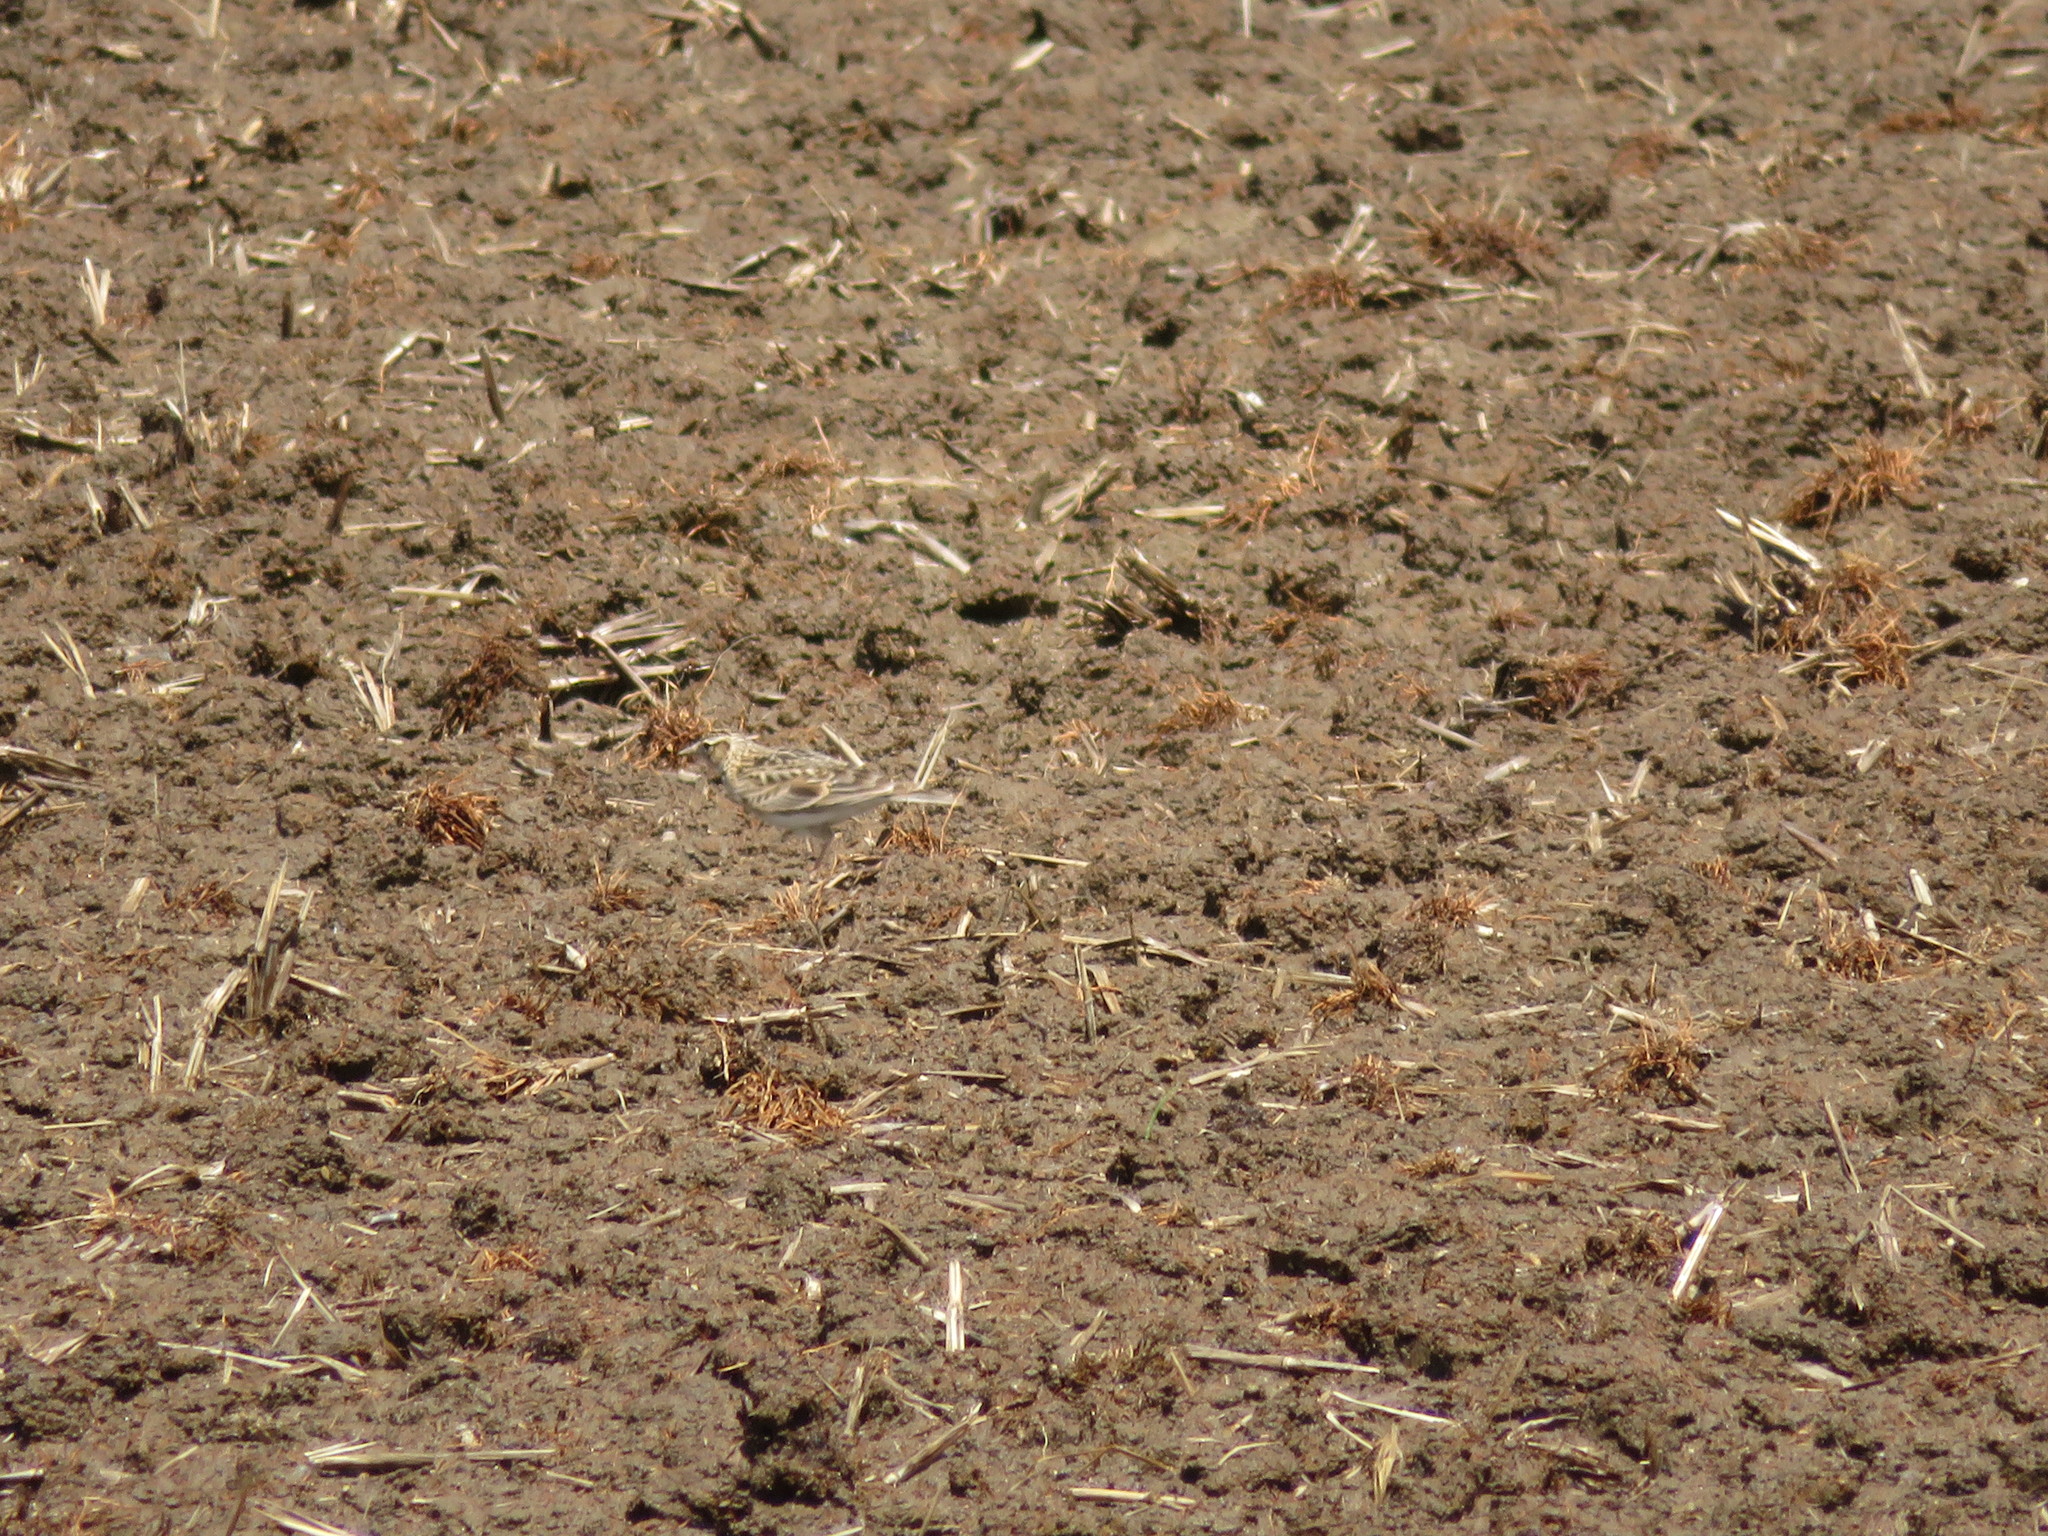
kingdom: Animalia
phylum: Chordata
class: Aves
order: Passeriformes
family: Alaudidae
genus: Alauda
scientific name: Alauda arvensis
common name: Eurasian skylark
